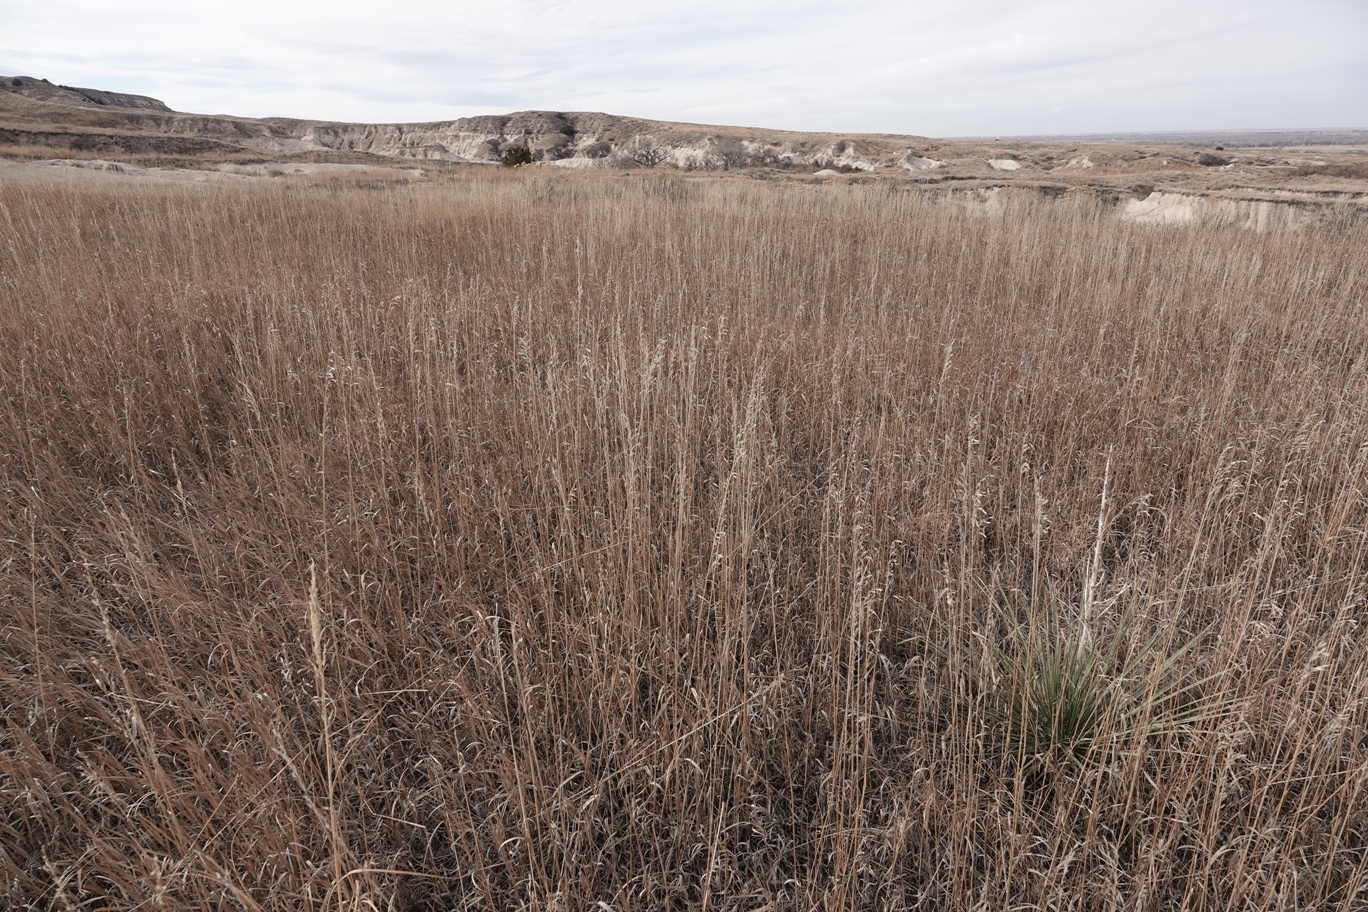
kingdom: Plantae
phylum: Tracheophyta
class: Liliopsida
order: Poales
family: Poaceae
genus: Bromus
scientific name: Bromus inermis
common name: Smooth brome
